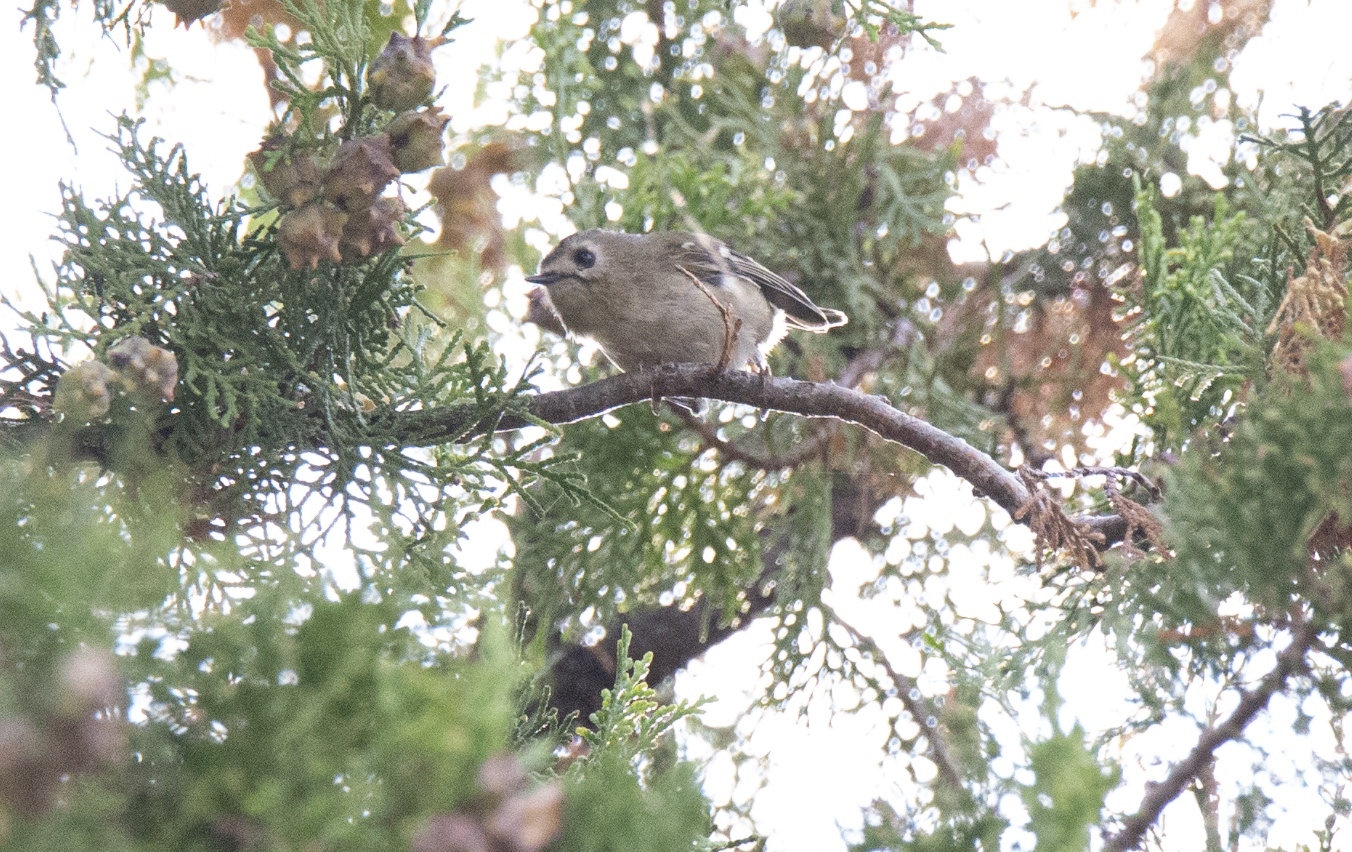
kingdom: Animalia
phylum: Chordata
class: Aves
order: Passeriformes
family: Regulidae
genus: Regulus
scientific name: Regulus regulus
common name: Goldcrest
